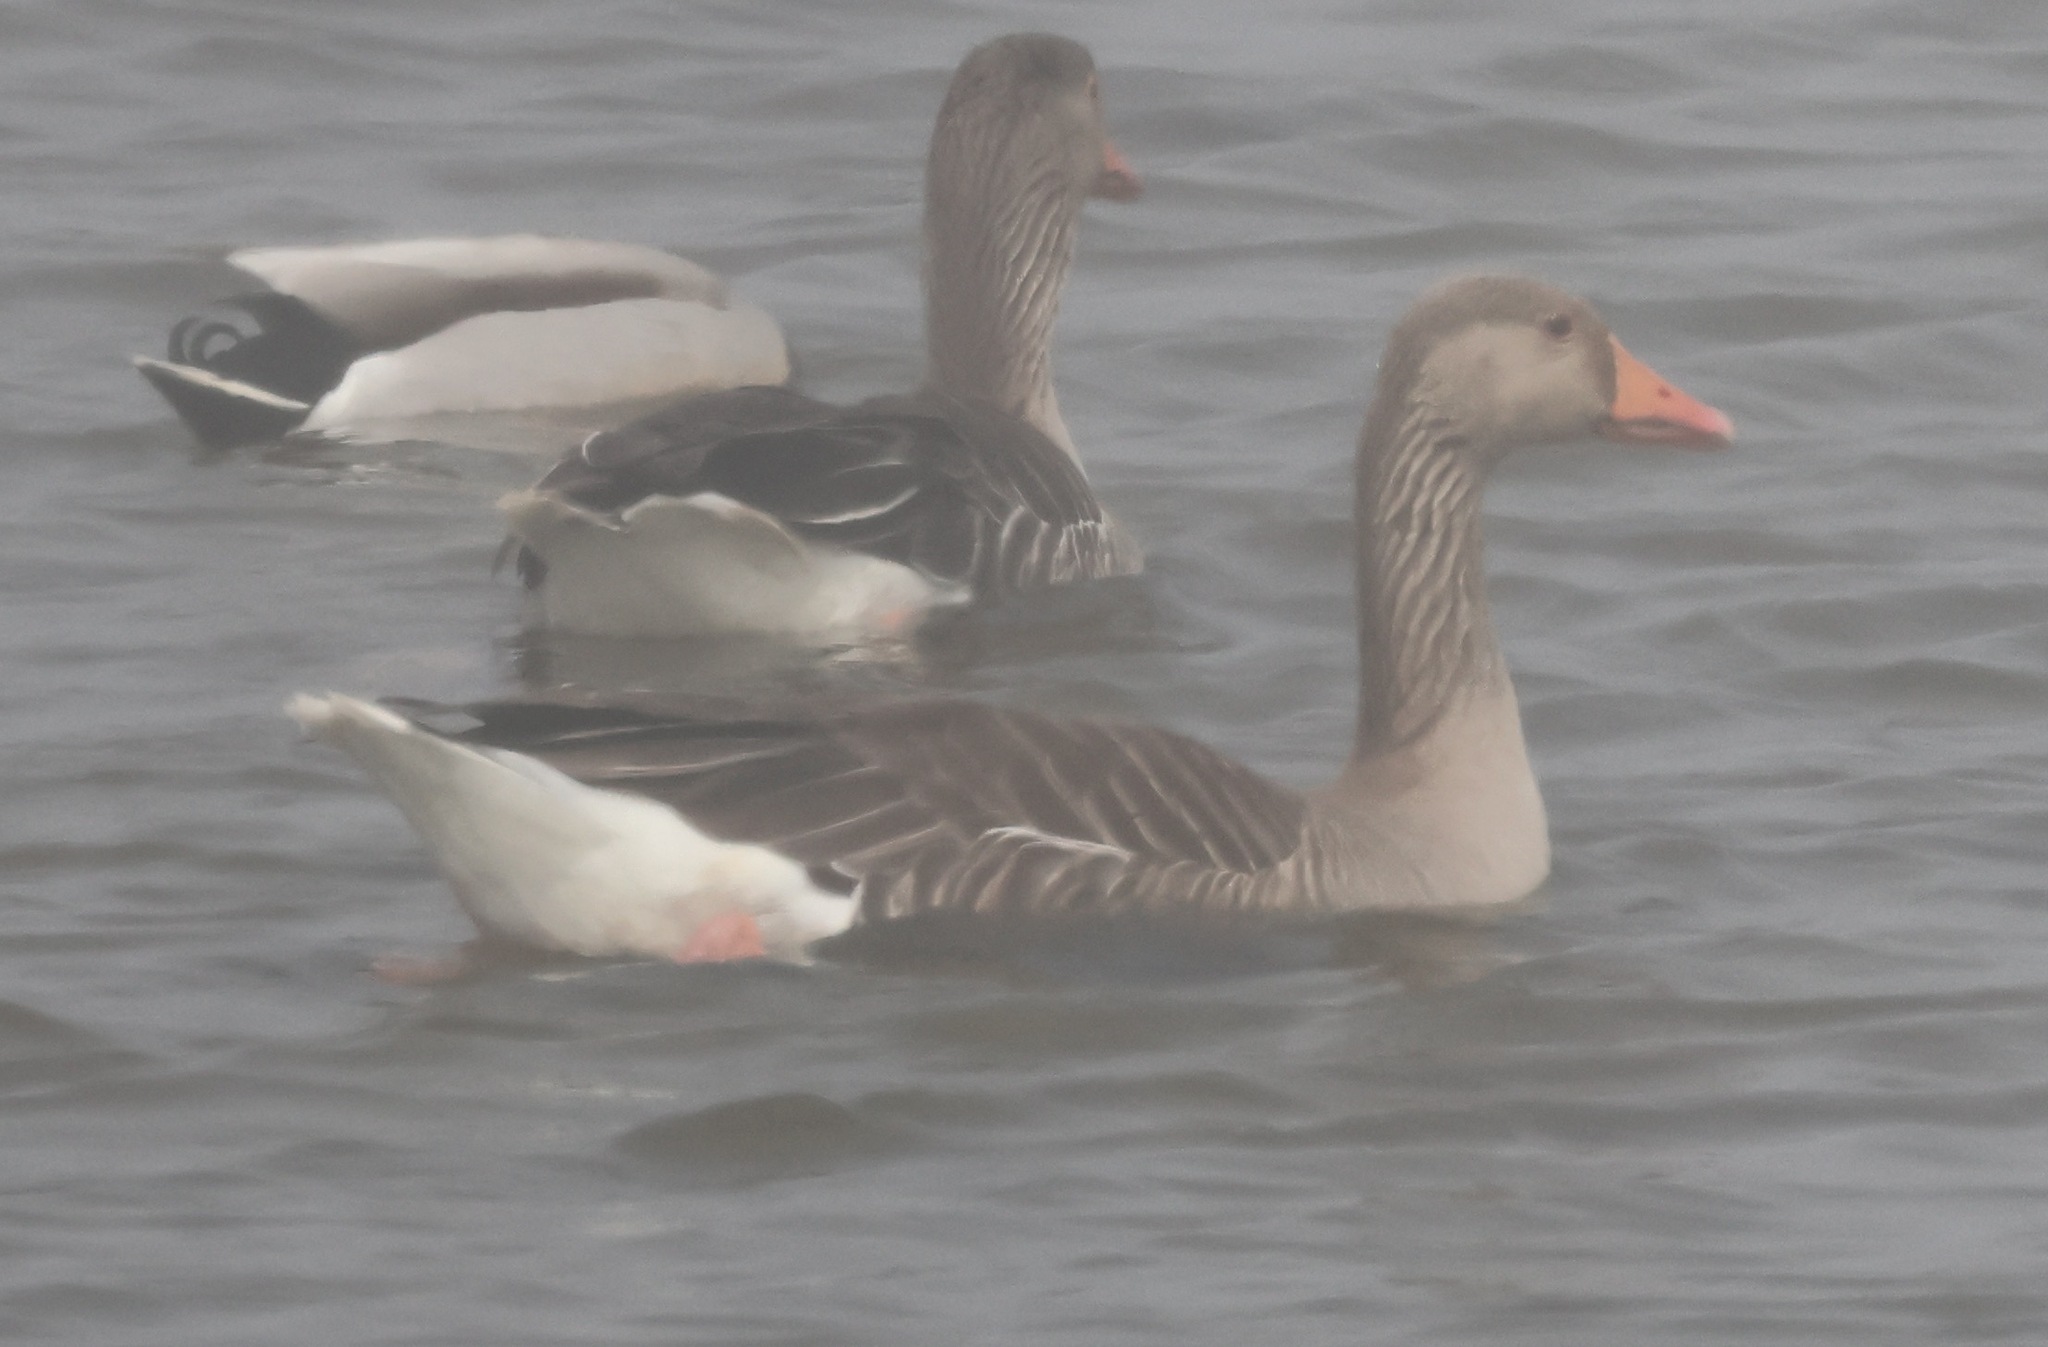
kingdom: Animalia
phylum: Chordata
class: Aves
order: Anseriformes
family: Anatidae
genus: Anser
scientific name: Anser anser
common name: Greylag goose
